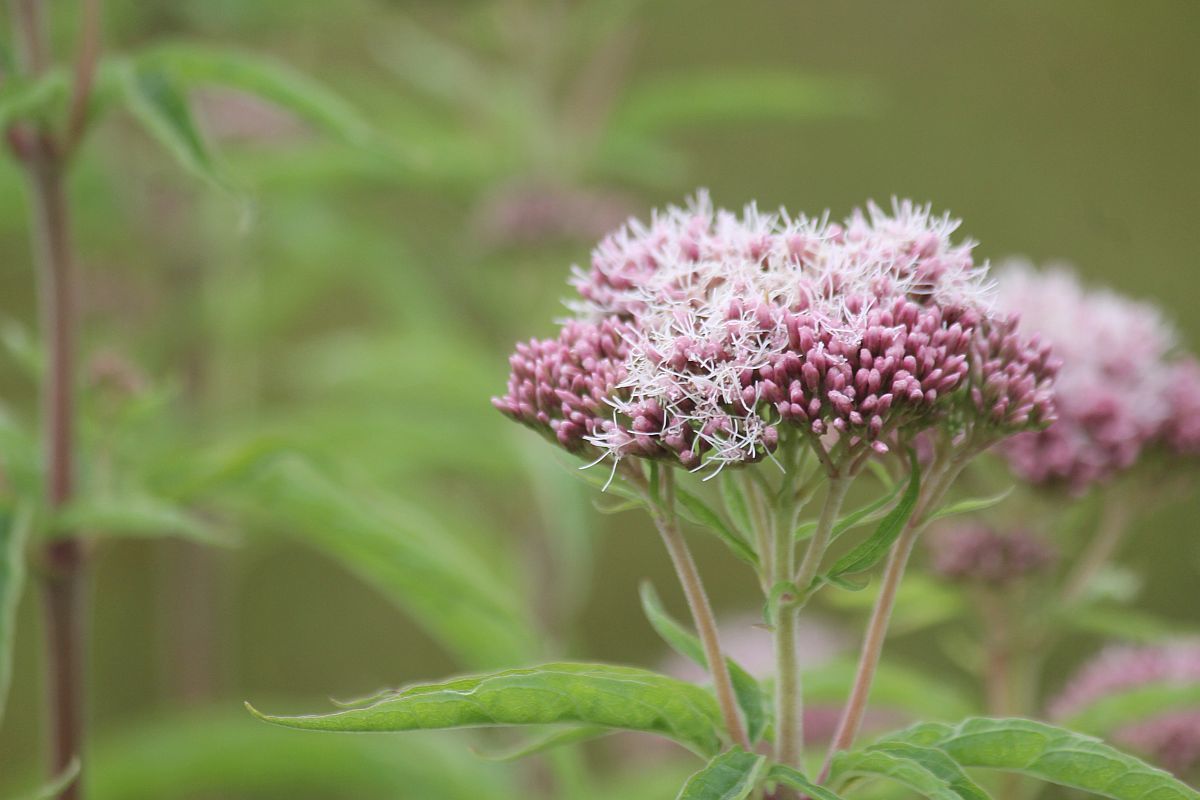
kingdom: Plantae
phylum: Tracheophyta
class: Magnoliopsida
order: Asterales
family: Asteraceae
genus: Eupatorium
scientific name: Eupatorium cannabinum
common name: Hemp-agrimony
